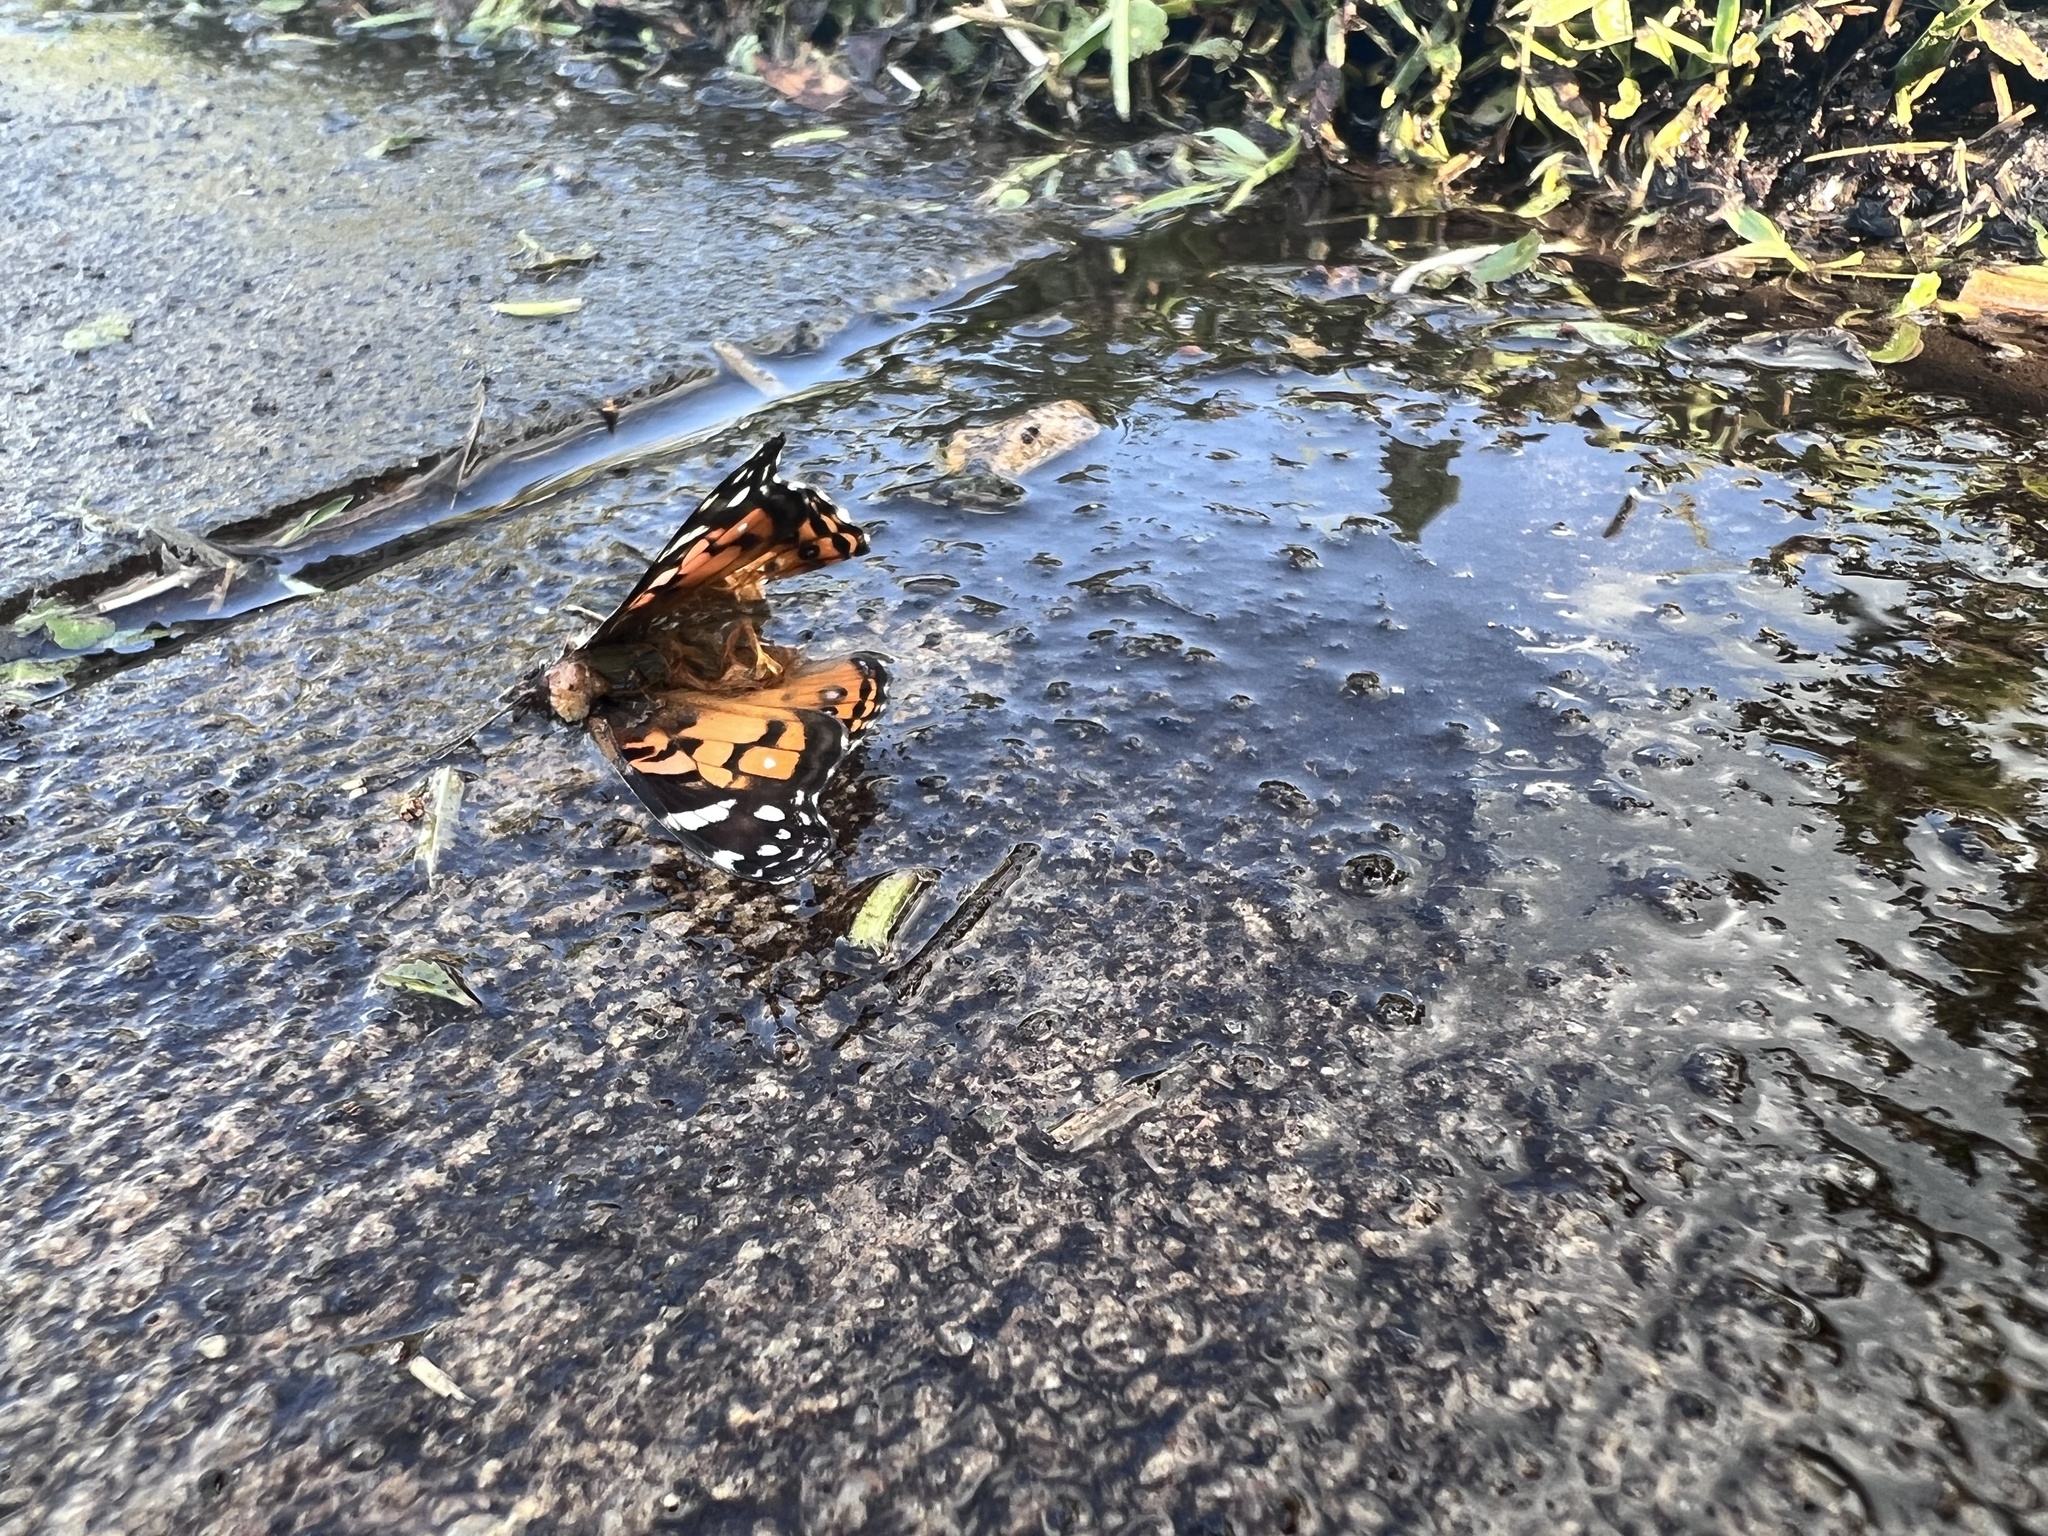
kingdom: Animalia
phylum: Arthropoda
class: Insecta
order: Lepidoptera
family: Nymphalidae
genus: Vanessa
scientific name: Vanessa virginiensis
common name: American lady
